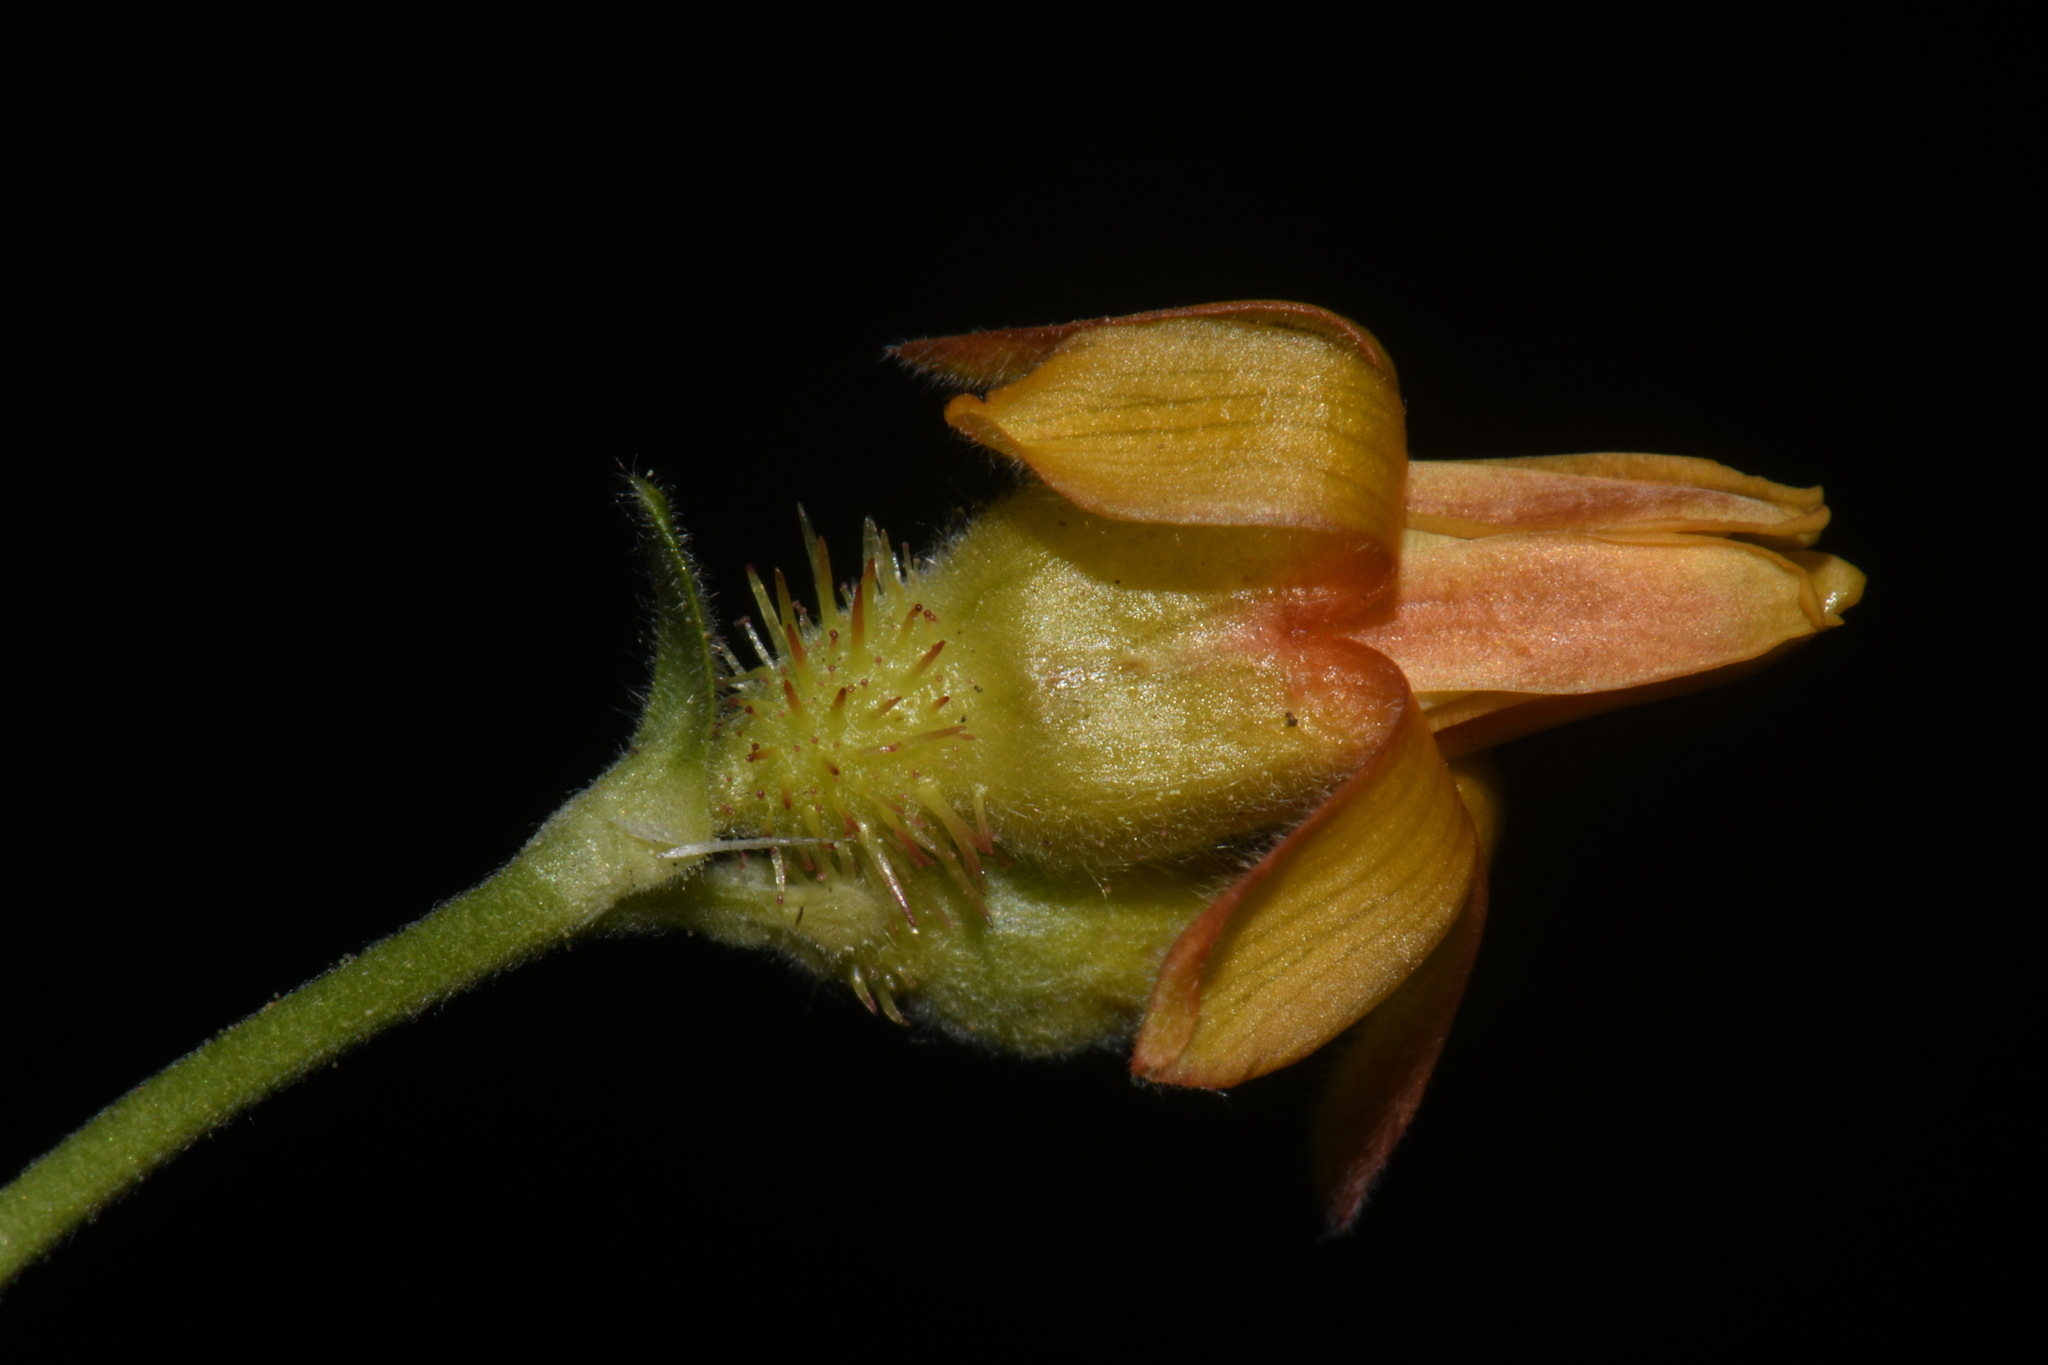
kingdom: Plantae
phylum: Tracheophyta
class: Magnoliopsida
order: Saxifragales
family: Grossulariaceae
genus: Ribes
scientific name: Ribes pinetorum
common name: Orange gooseberry
